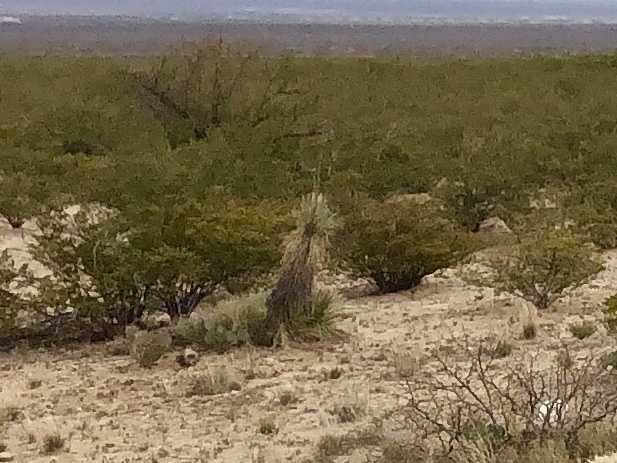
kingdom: Plantae
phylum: Tracheophyta
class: Liliopsida
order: Asparagales
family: Asparagaceae
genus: Yucca
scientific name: Yucca elata
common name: Palmella
